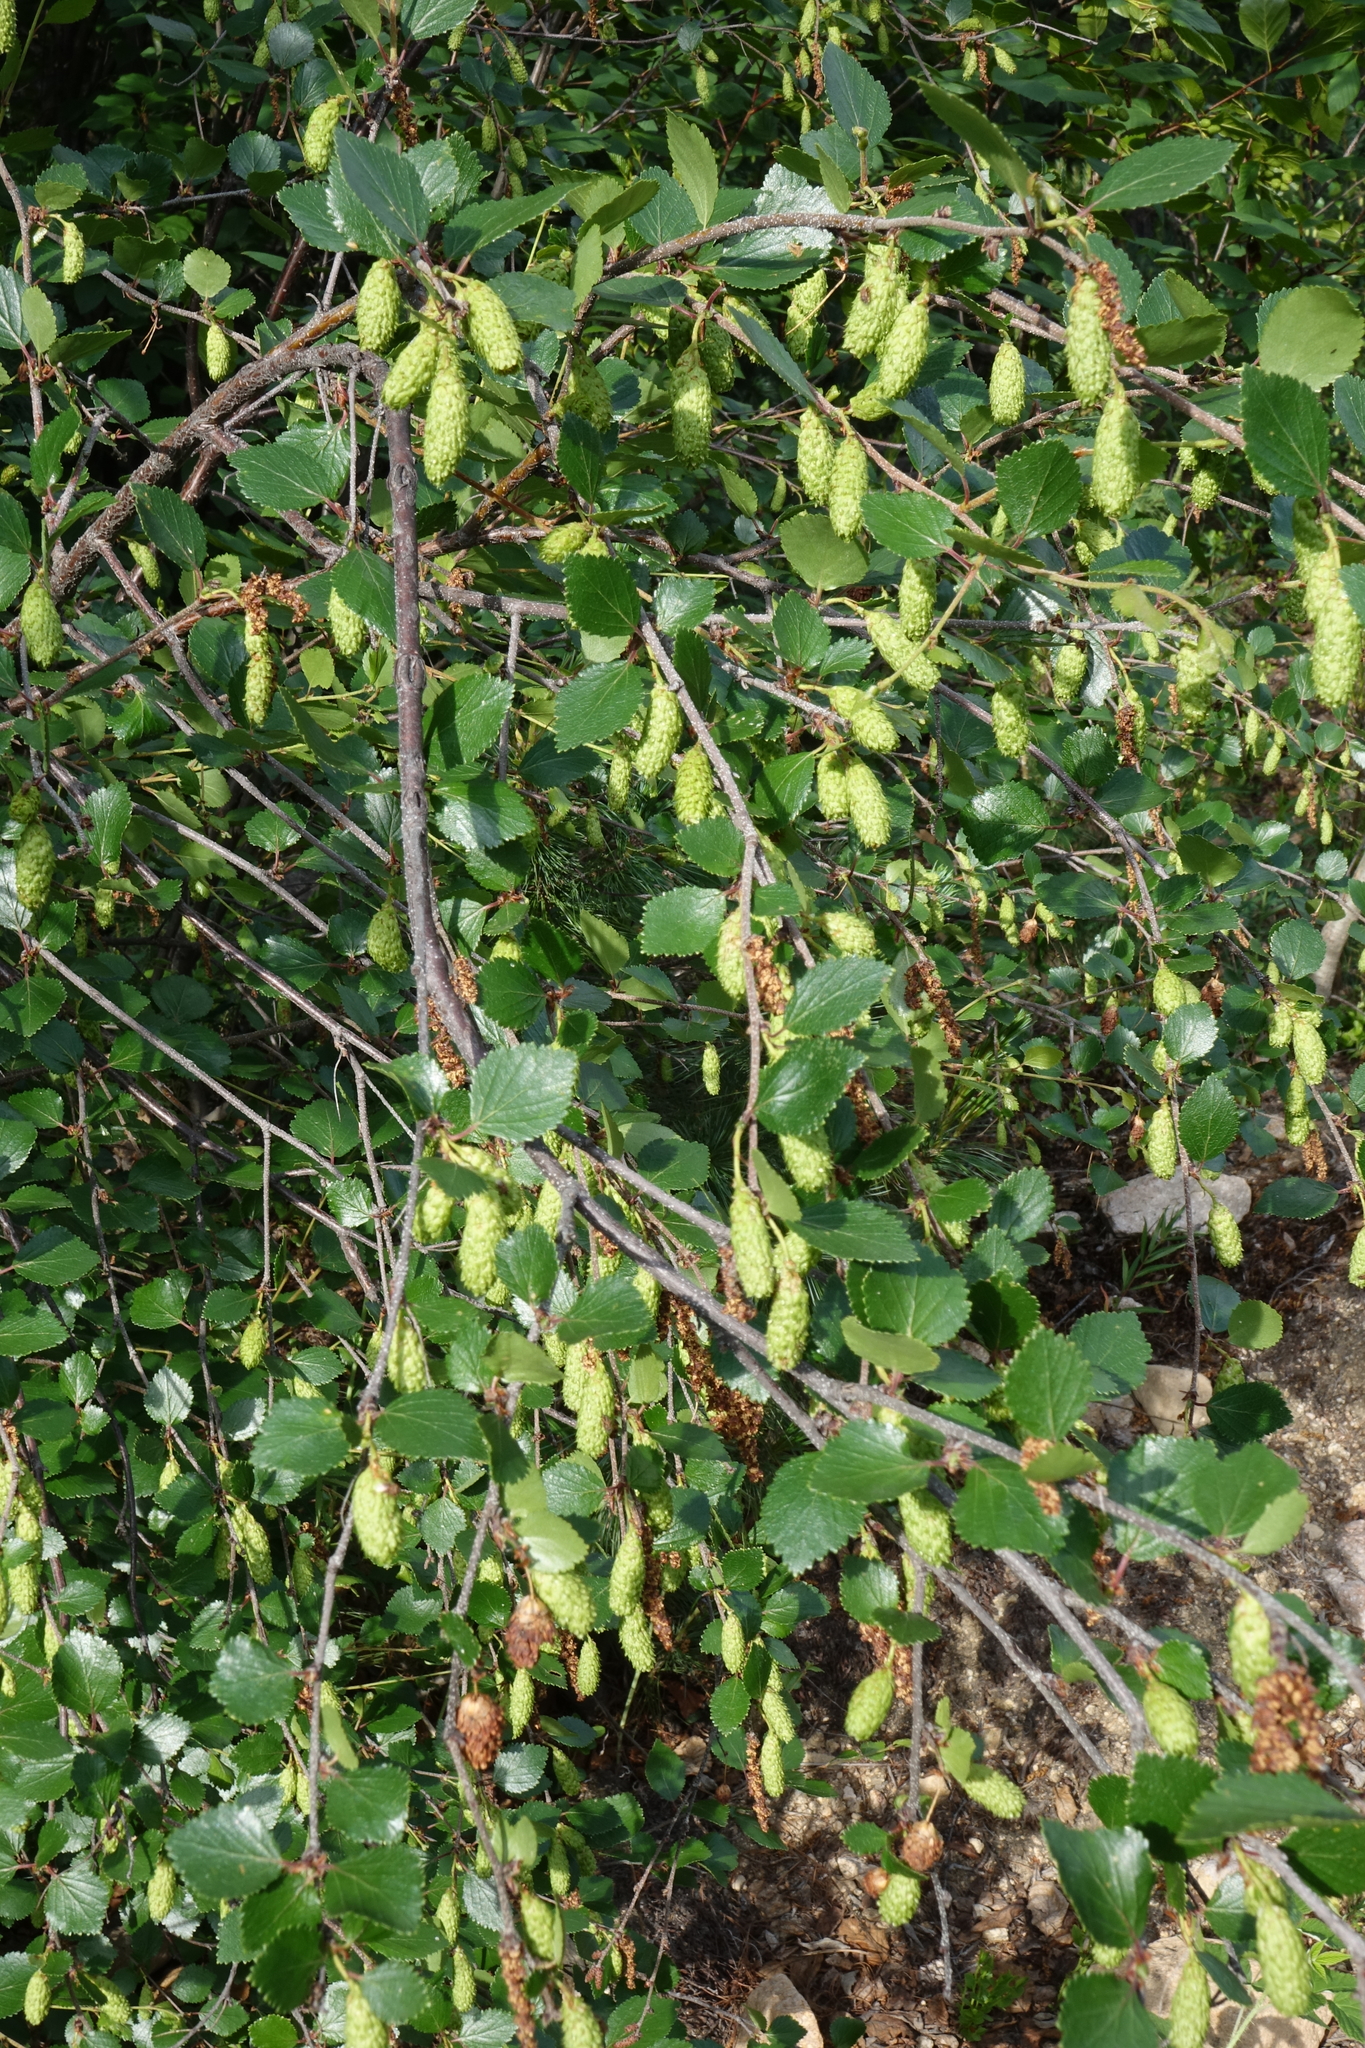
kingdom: Plantae
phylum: Tracheophyta
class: Magnoliopsida
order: Fagales
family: Betulaceae
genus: Betula
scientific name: Betula fruticosa
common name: Japanese bog birch
